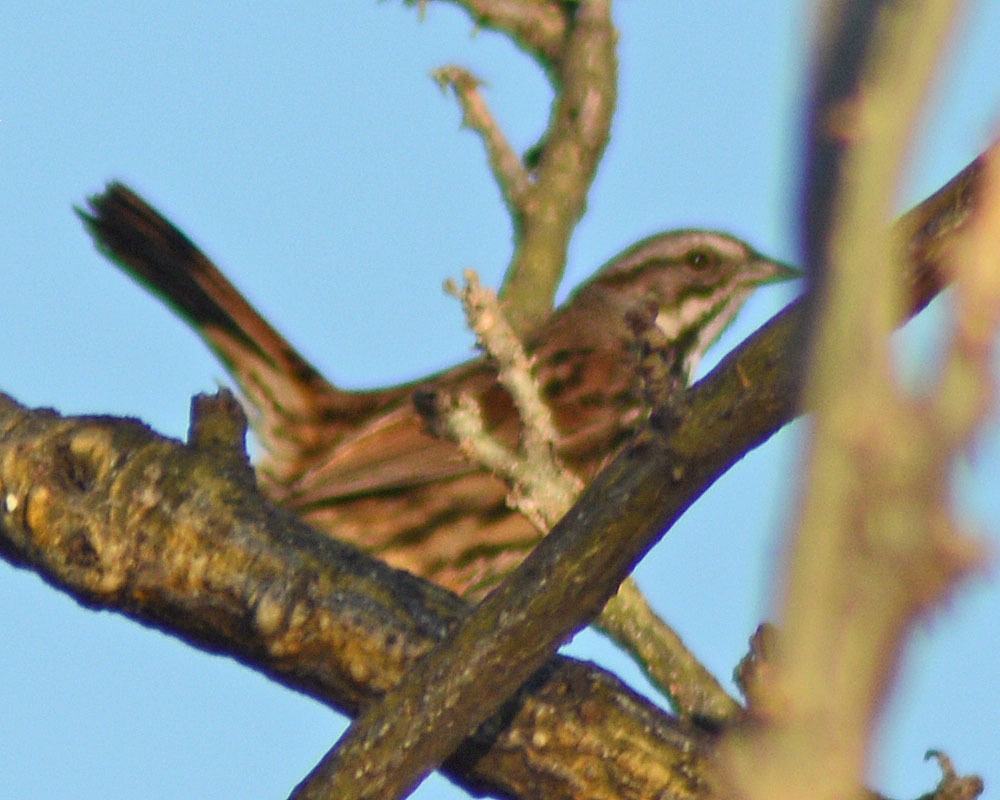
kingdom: Animalia
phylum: Chordata
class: Aves
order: Passeriformes
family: Passerellidae
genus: Melospiza
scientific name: Melospiza melodia
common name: Song sparrow
